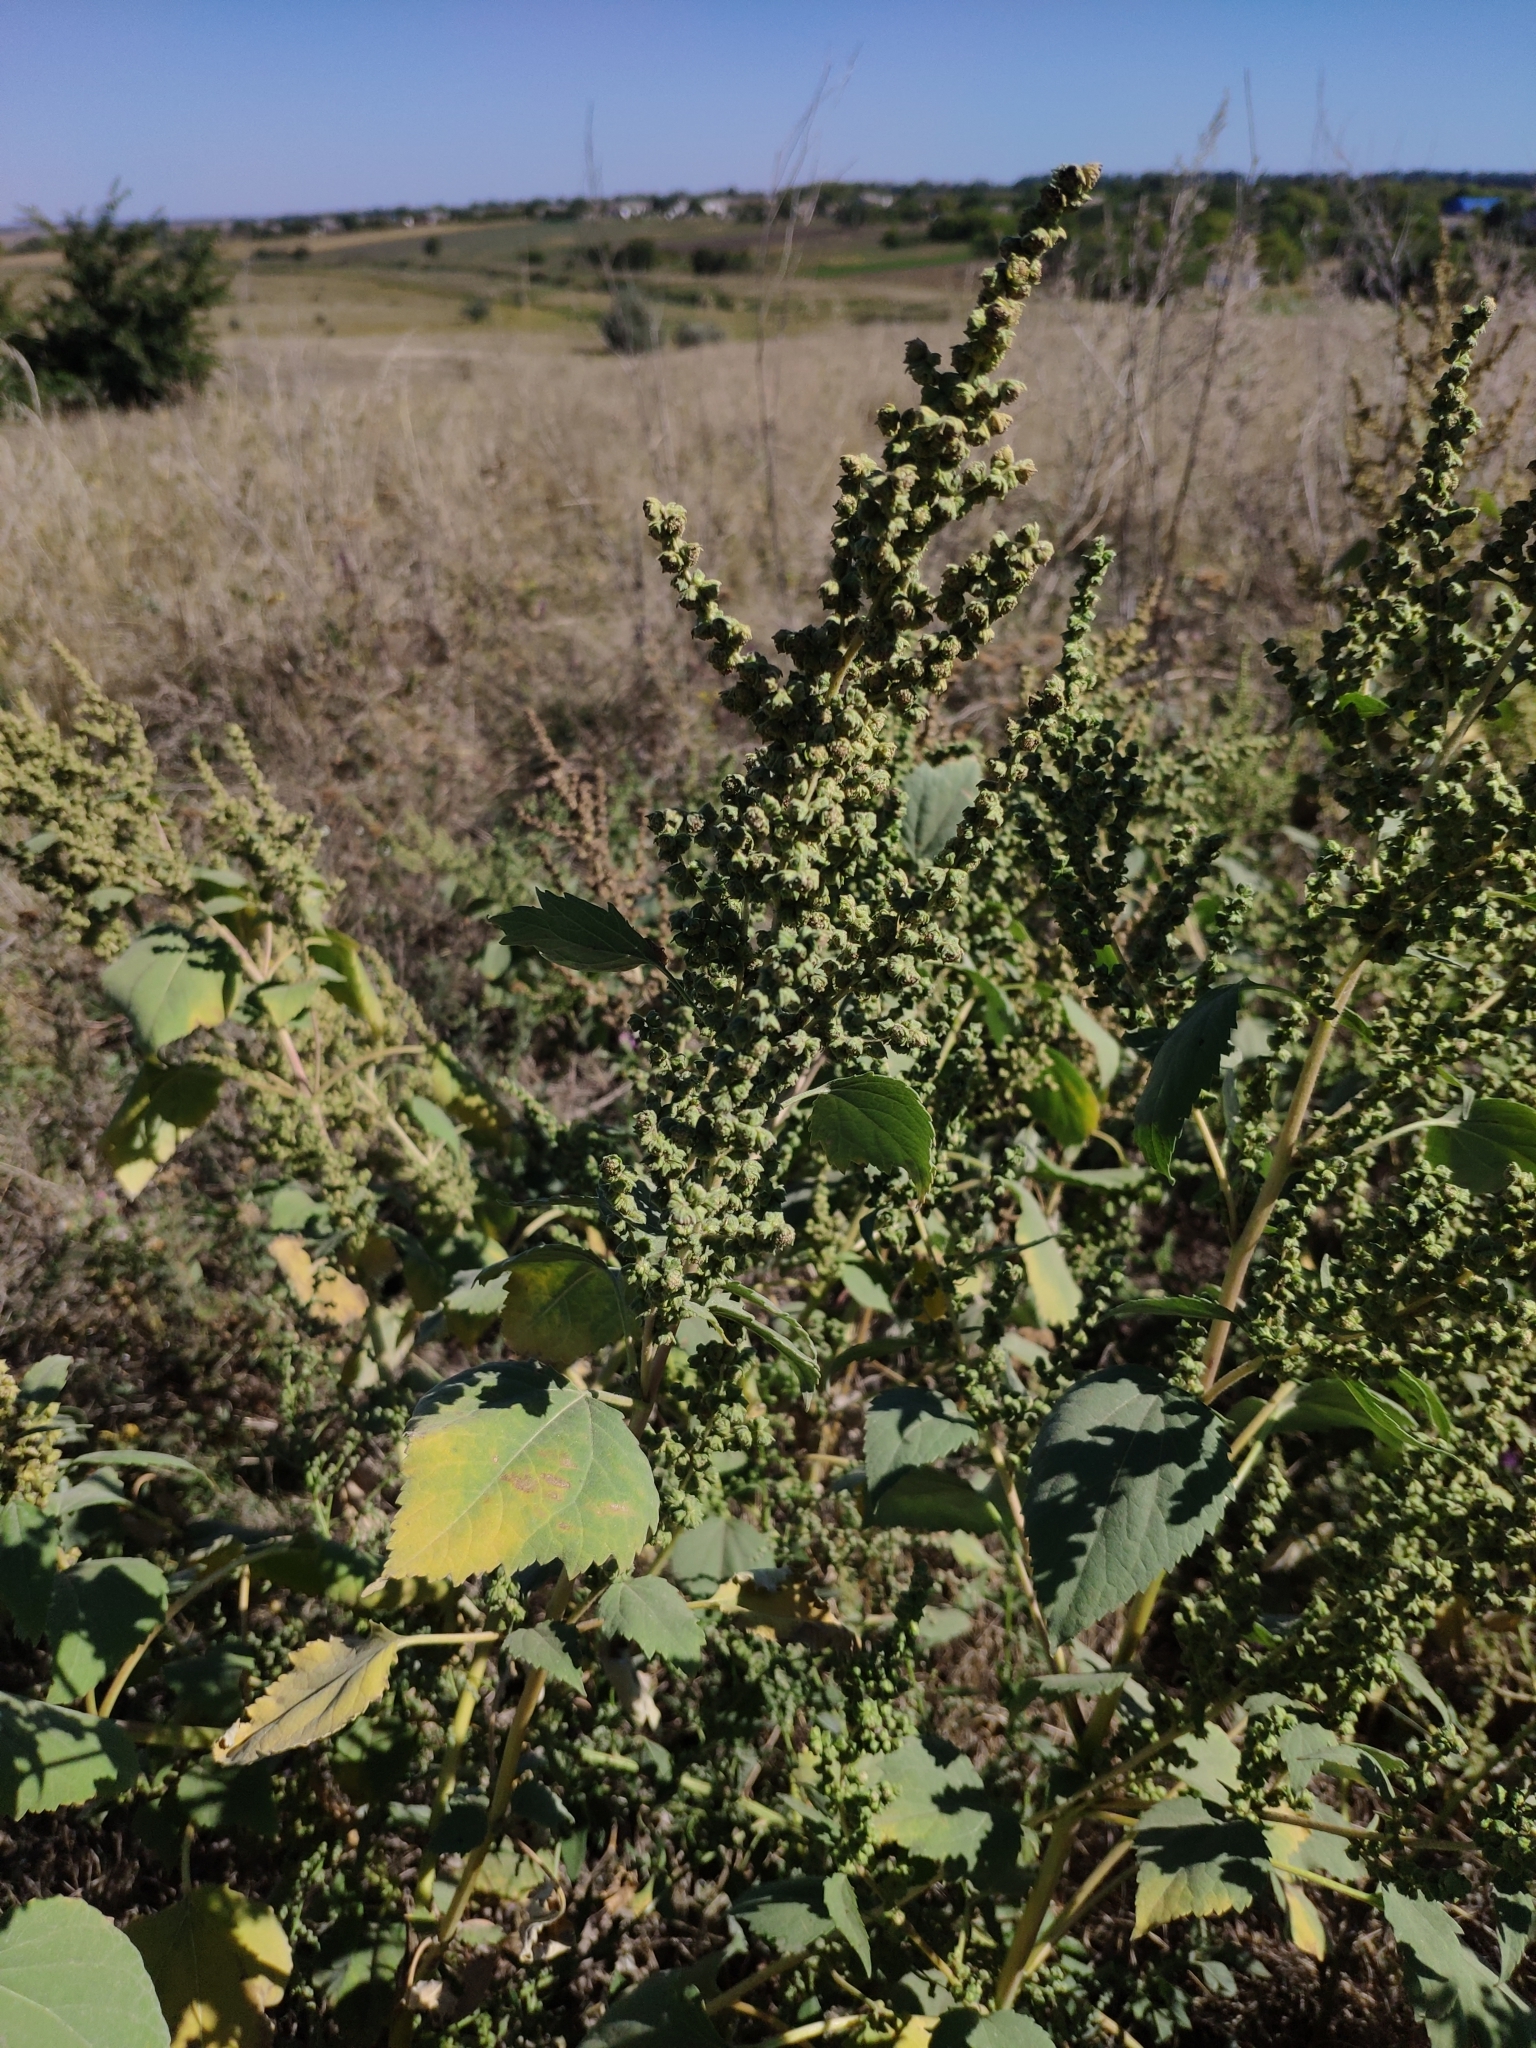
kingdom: Plantae
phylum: Tracheophyta
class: Magnoliopsida
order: Asterales
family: Asteraceae
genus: Cyclachaena
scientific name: Cyclachaena xanthiifolia
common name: Giant sumpweed
